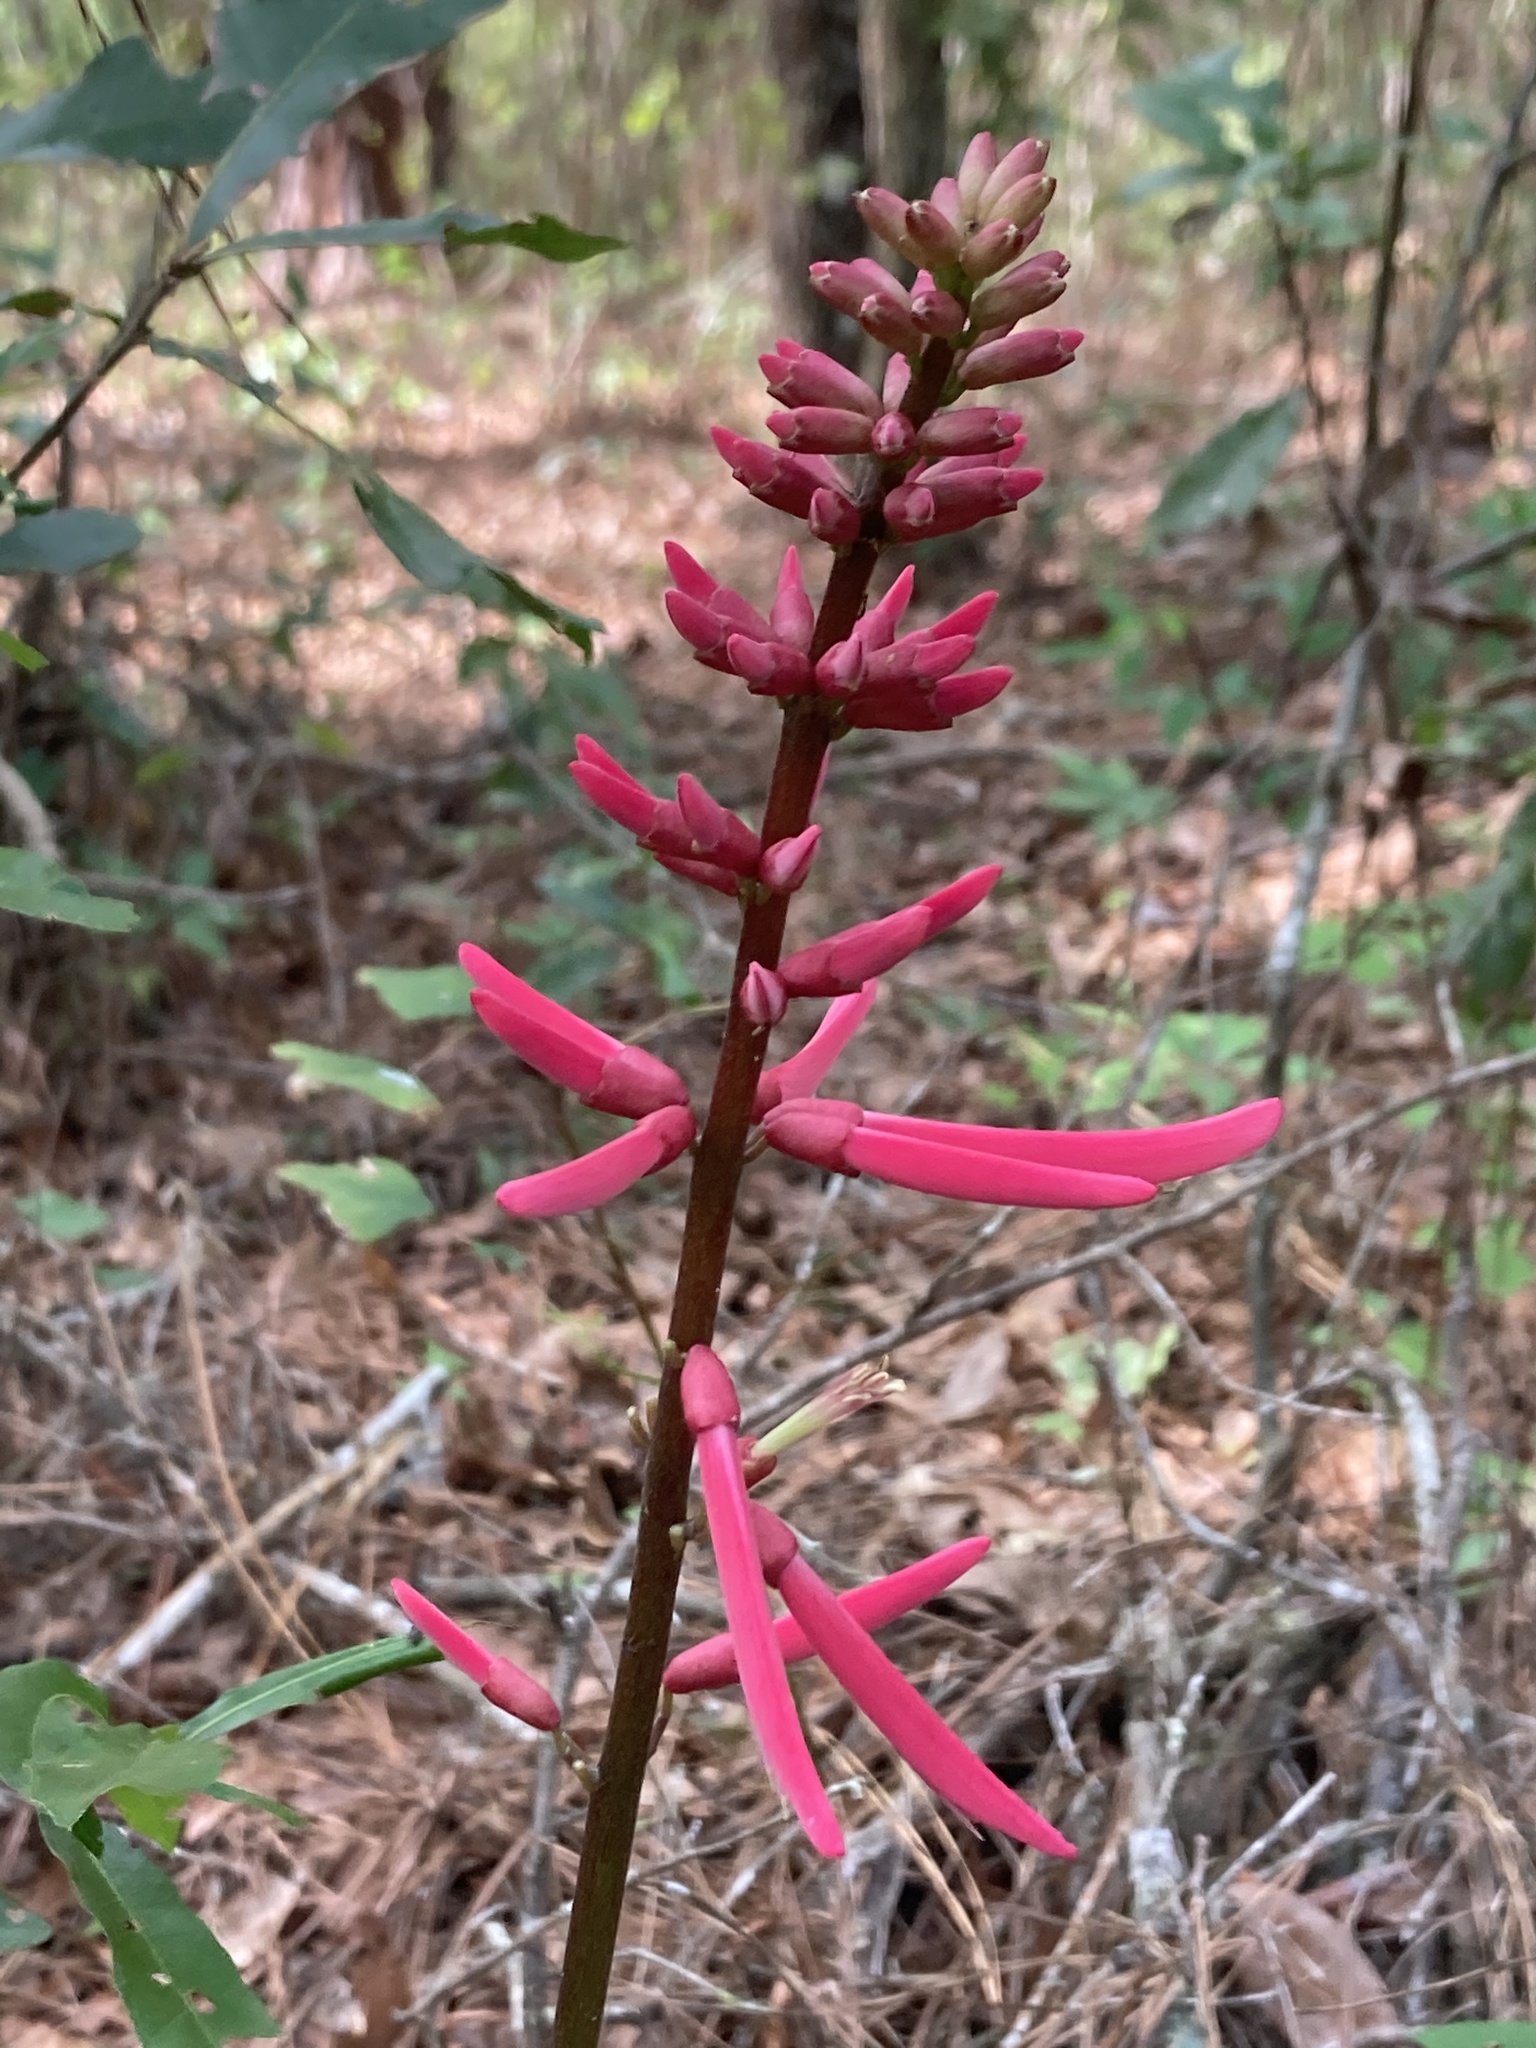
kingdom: Plantae
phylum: Tracheophyta
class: Magnoliopsida
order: Fabales
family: Fabaceae
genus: Erythrina
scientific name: Erythrina herbacea
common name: Coral-bean
